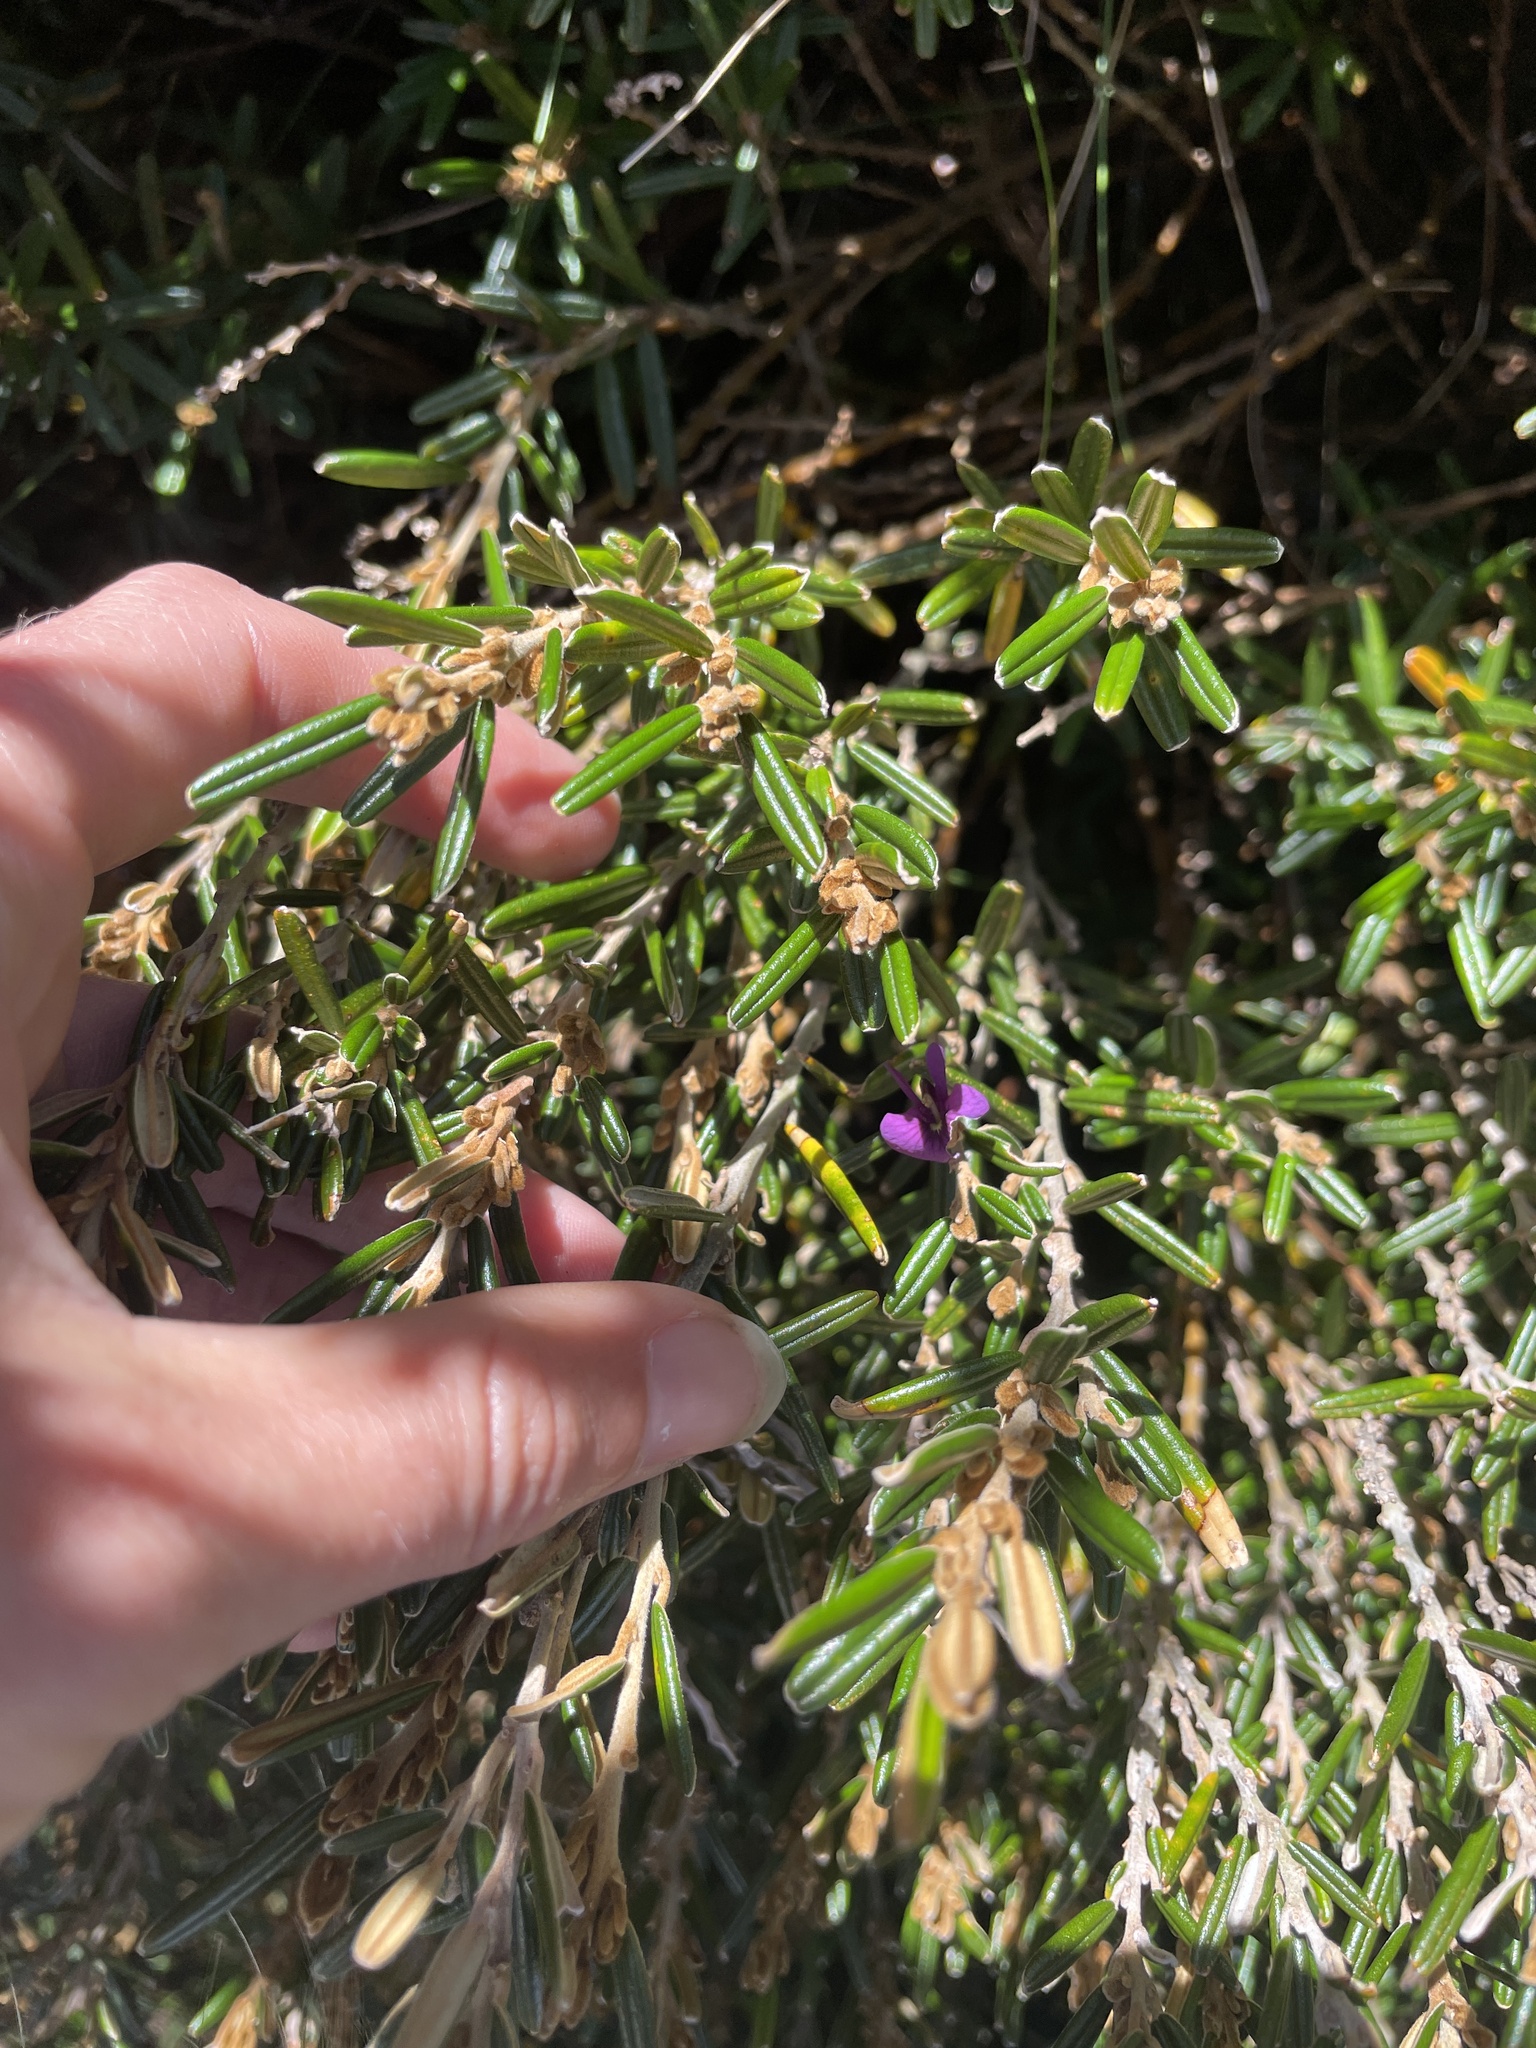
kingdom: Plantae
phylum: Tracheophyta
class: Magnoliopsida
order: Fabales
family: Fabaceae
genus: Hovea
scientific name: Hovea montana
